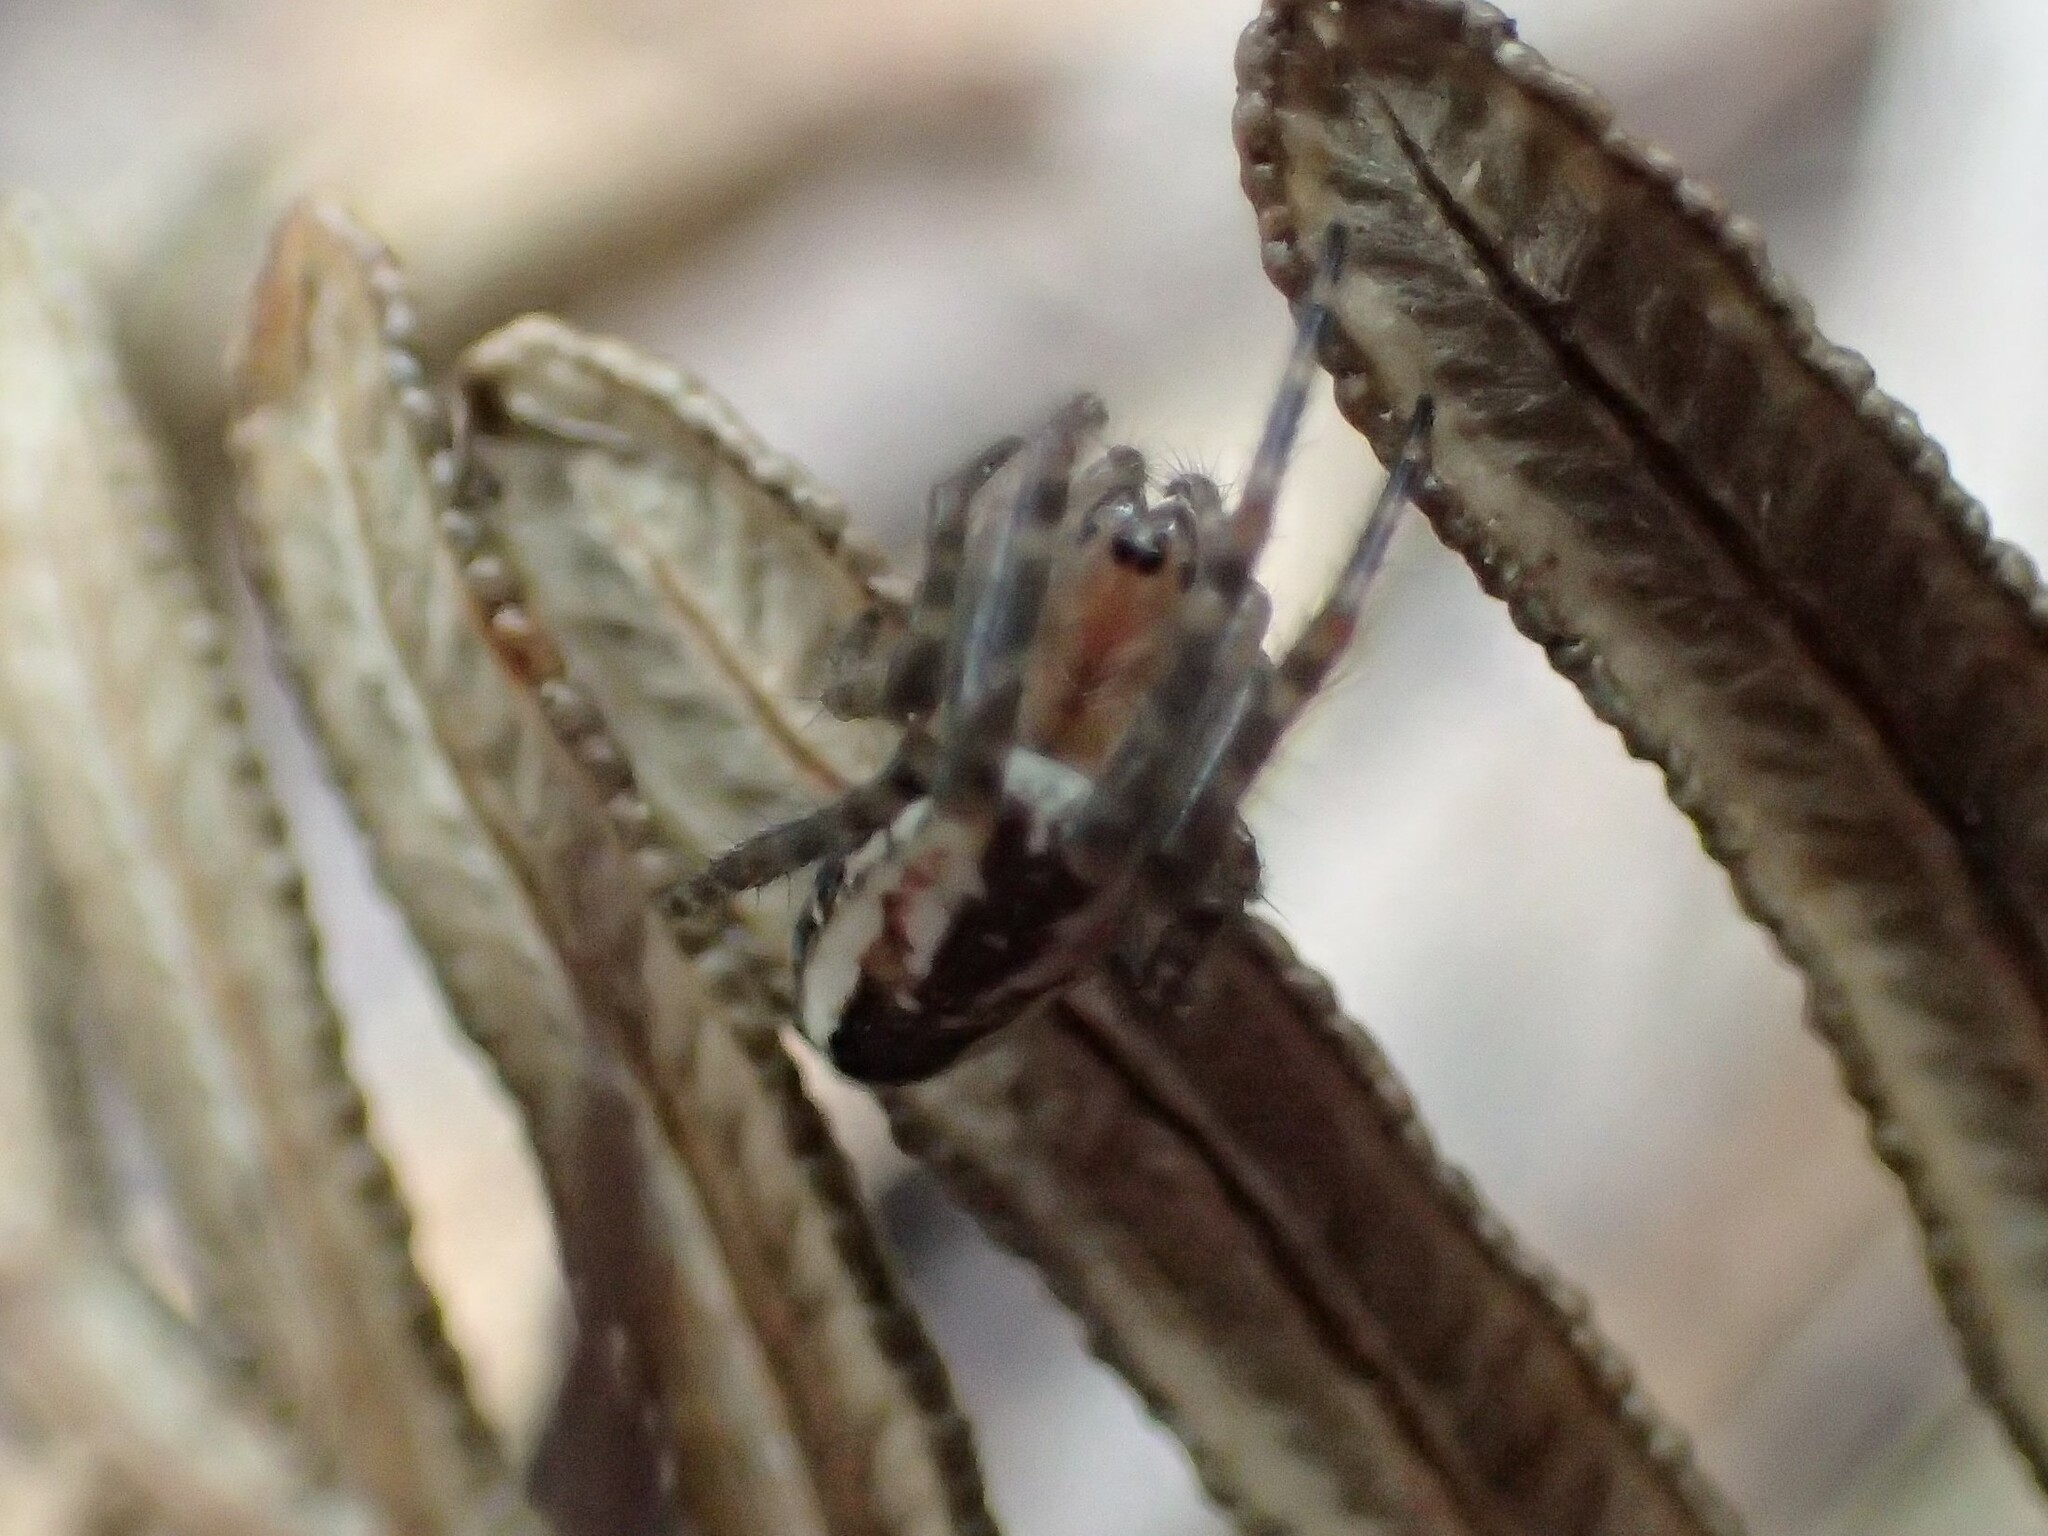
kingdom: Animalia
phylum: Arthropoda
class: Arachnida
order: Araneae
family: Araneidae
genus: Plebs
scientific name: Plebs bradleyi
